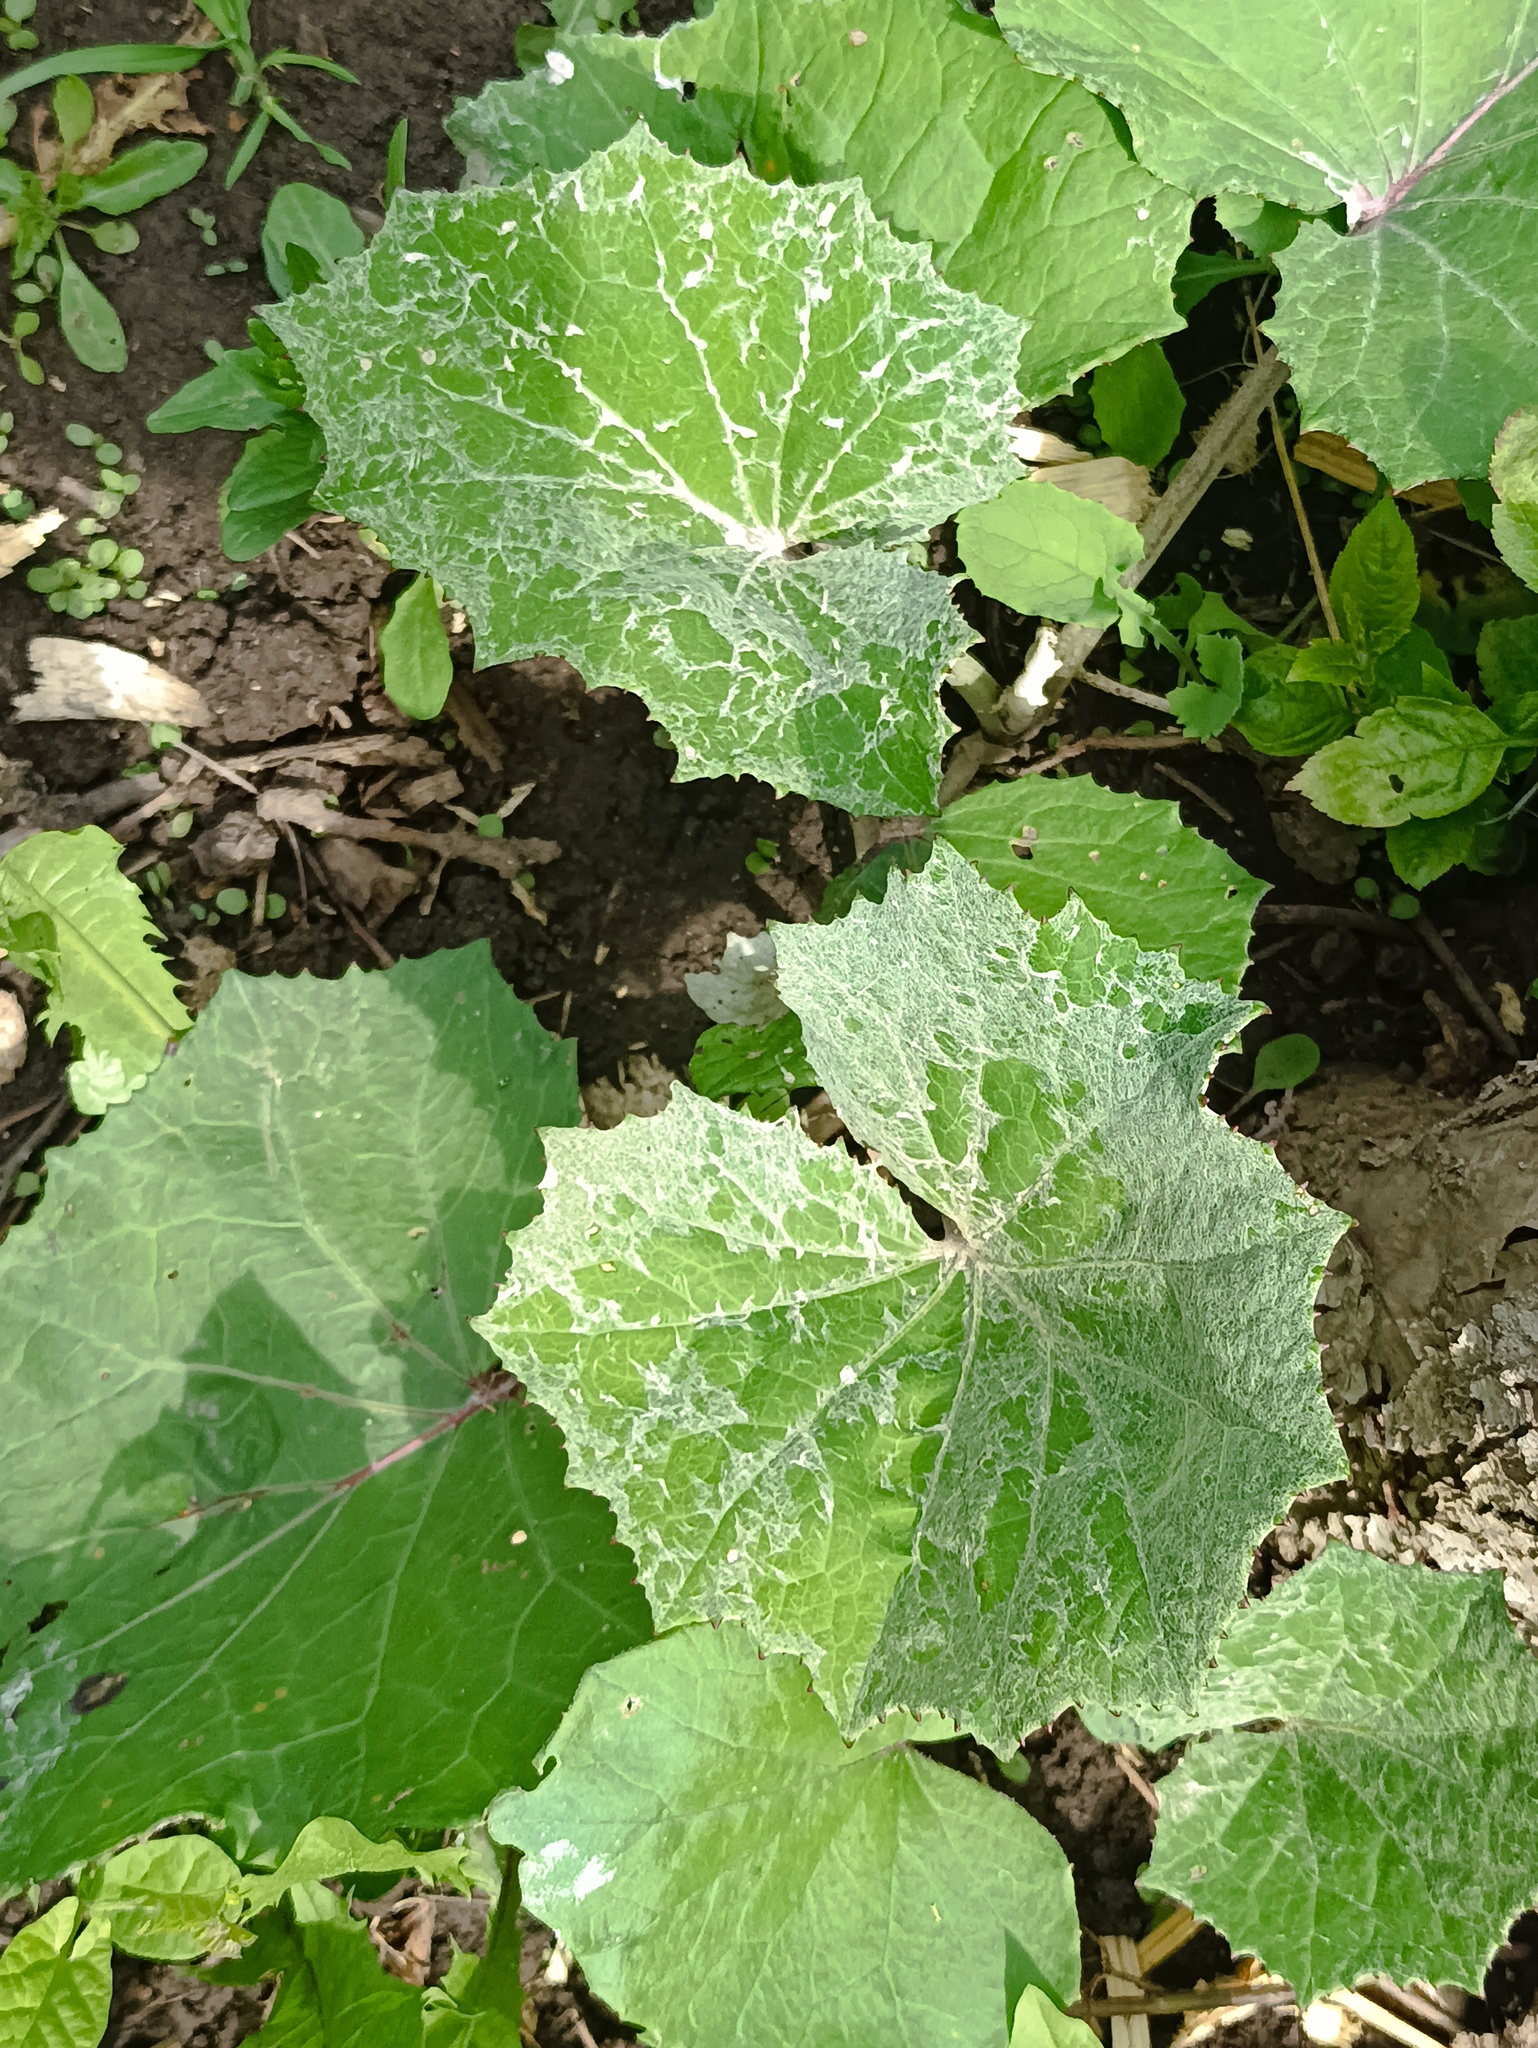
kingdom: Plantae
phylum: Tracheophyta
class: Magnoliopsida
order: Asterales
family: Asteraceae
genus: Tussilago
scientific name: Tussilago farfara
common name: Coltsfoot
